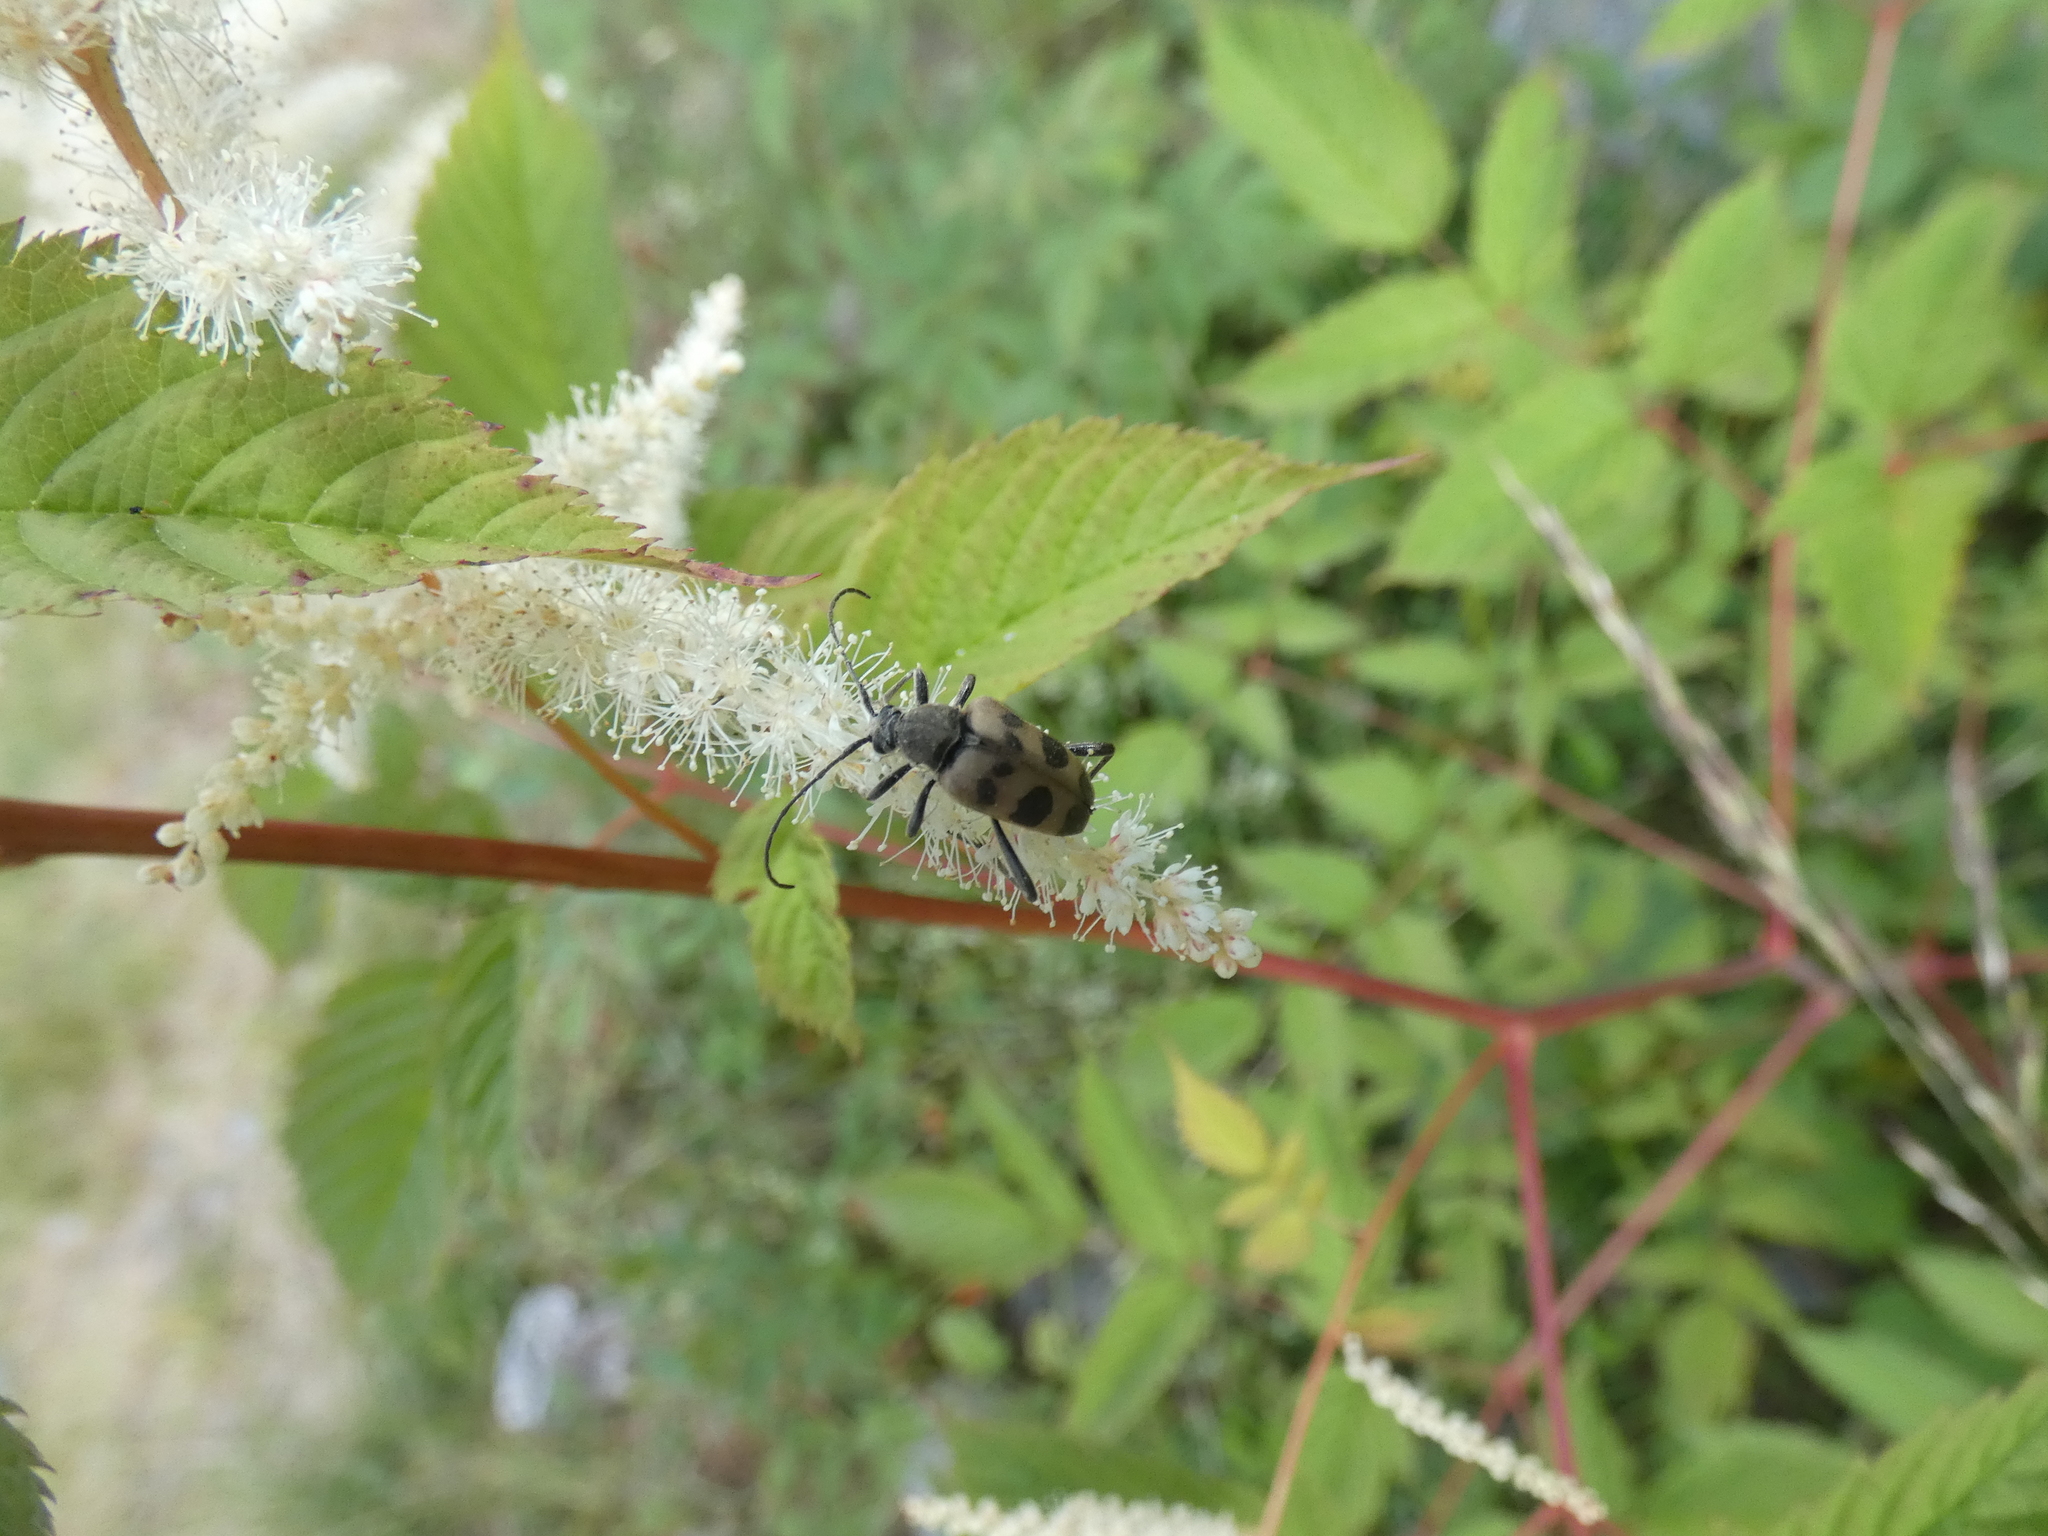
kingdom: Animalia
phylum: Arthropoda
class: Insecta
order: Coleoptera
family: Cerambycidae
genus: Pachytodes
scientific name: Pachytodes cerambyciformis
